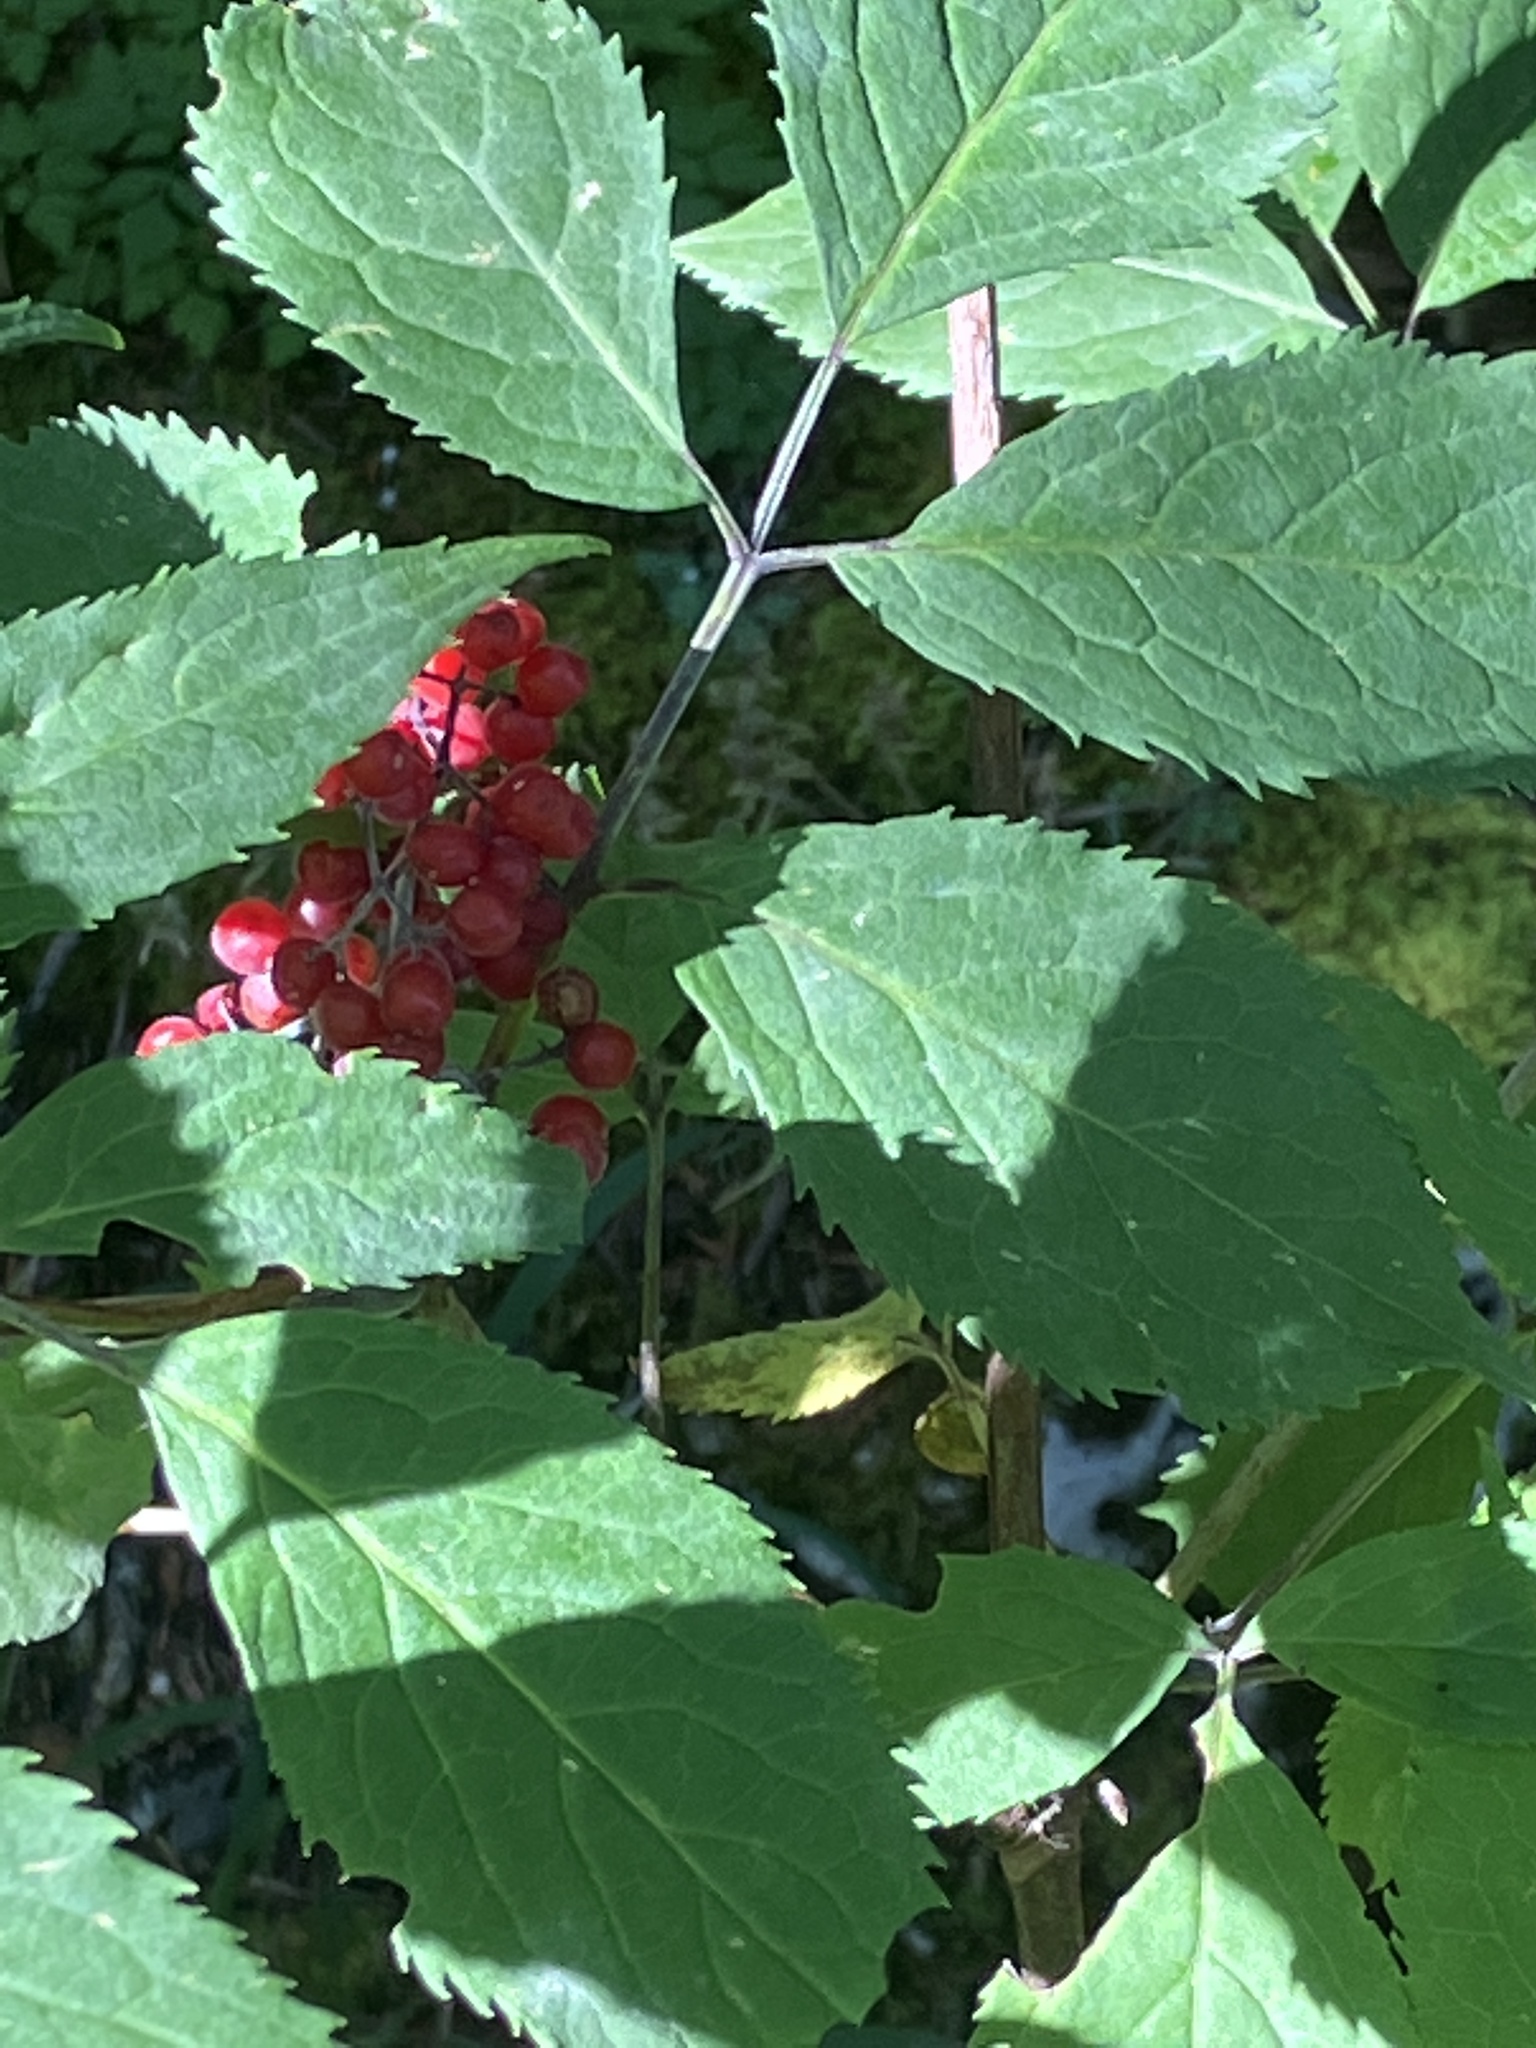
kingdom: Plantae
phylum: Tracheophyta
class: Magnoliopsida
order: Dipsacales
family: Viburnaceae
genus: Sambucus
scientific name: Sambucus racemosa
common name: Red-berried elder
